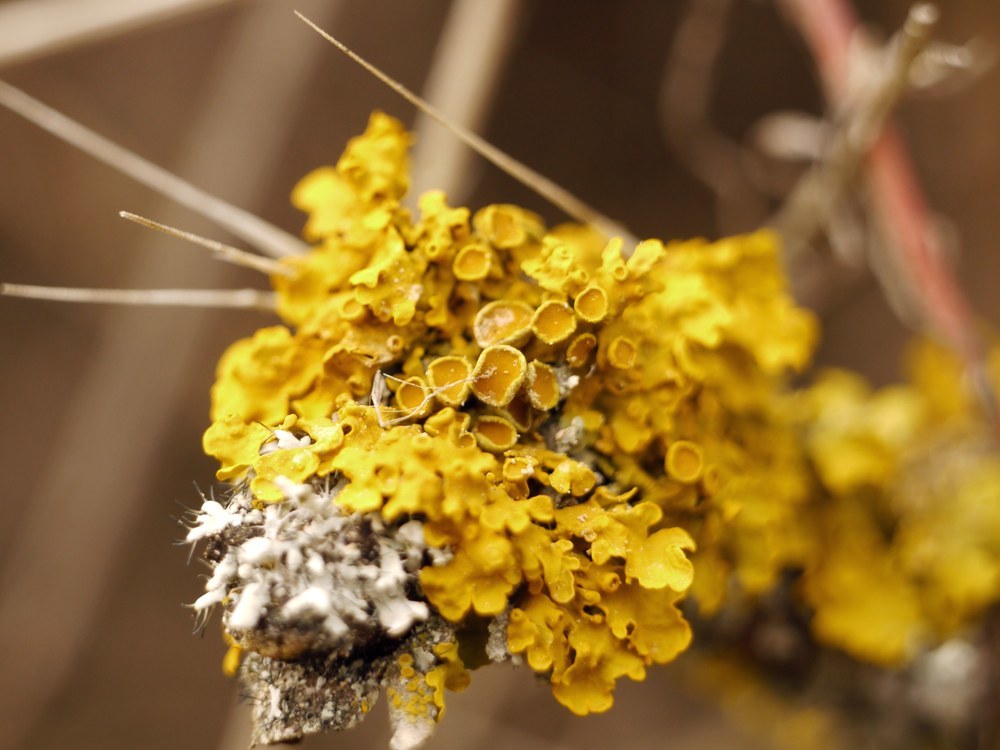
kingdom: Fungi
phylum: Ascomycota
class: Lecanoromycetes
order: Teloschistales
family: Teloschistaceae
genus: Xanthoria
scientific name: Xanthoria parietina
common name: Common orange lichen
